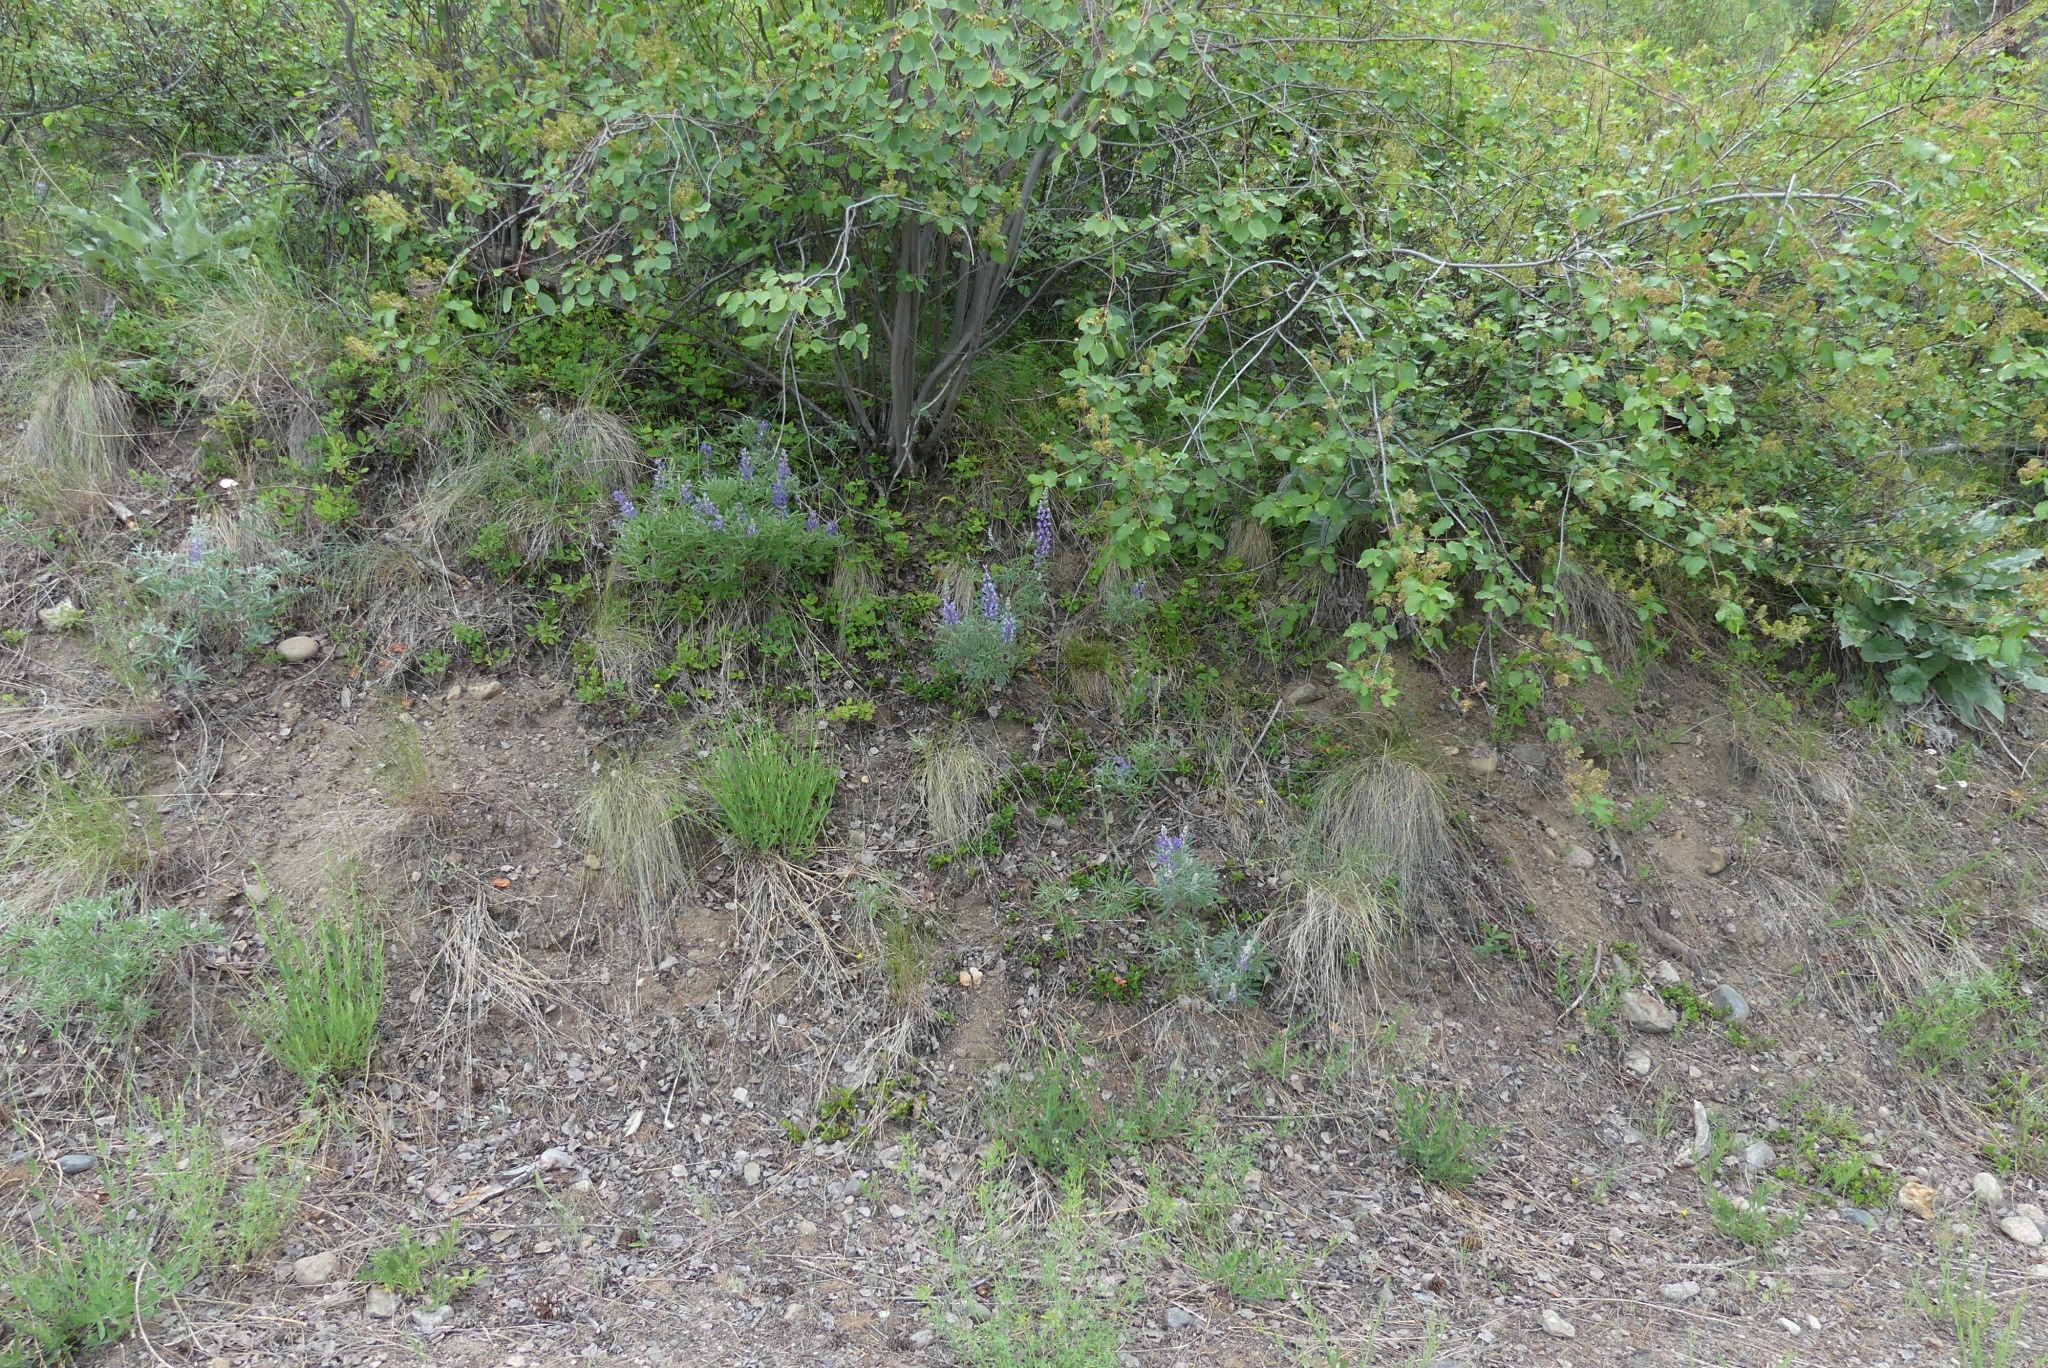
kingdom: Plantae
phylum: Tracheophyta
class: Magnoliopsida
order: Ericales
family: Ericaceae
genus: Arctostaphylos
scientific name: Arctostaphylos uva-ursi
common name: Bearberry
